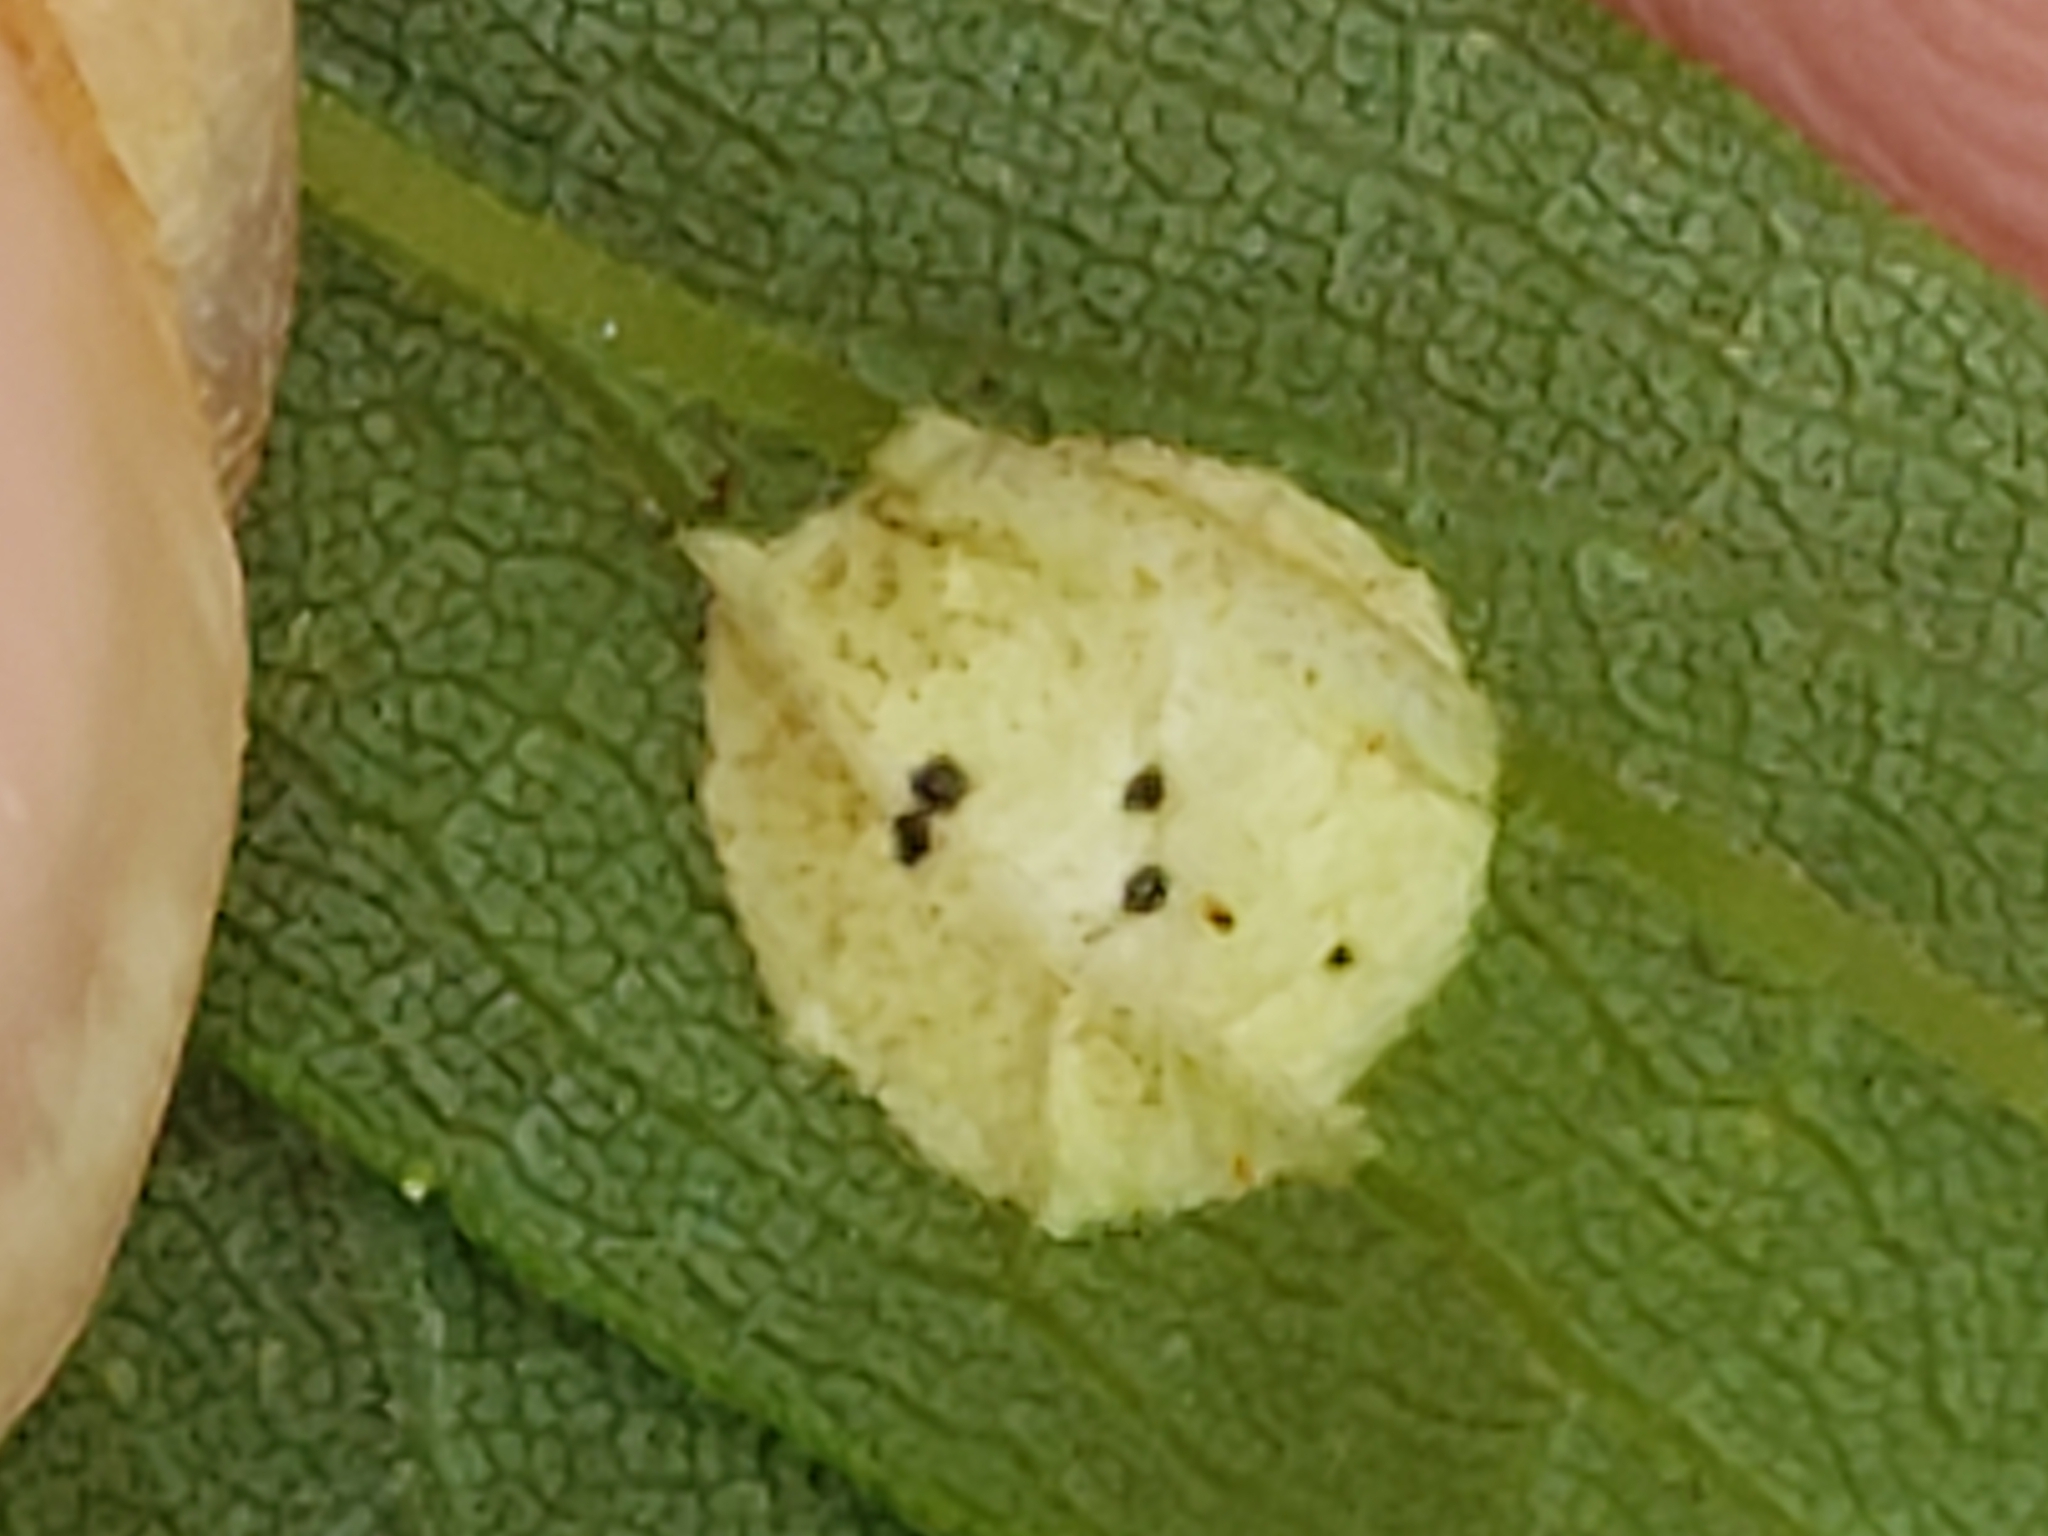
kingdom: Animalia
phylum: Arthropoda
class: Insecta
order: Diptera
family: Cecidomyiidae
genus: Asteromyia
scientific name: Asteromyia carbonifera
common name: Carbonifera goldenrod gall midge
